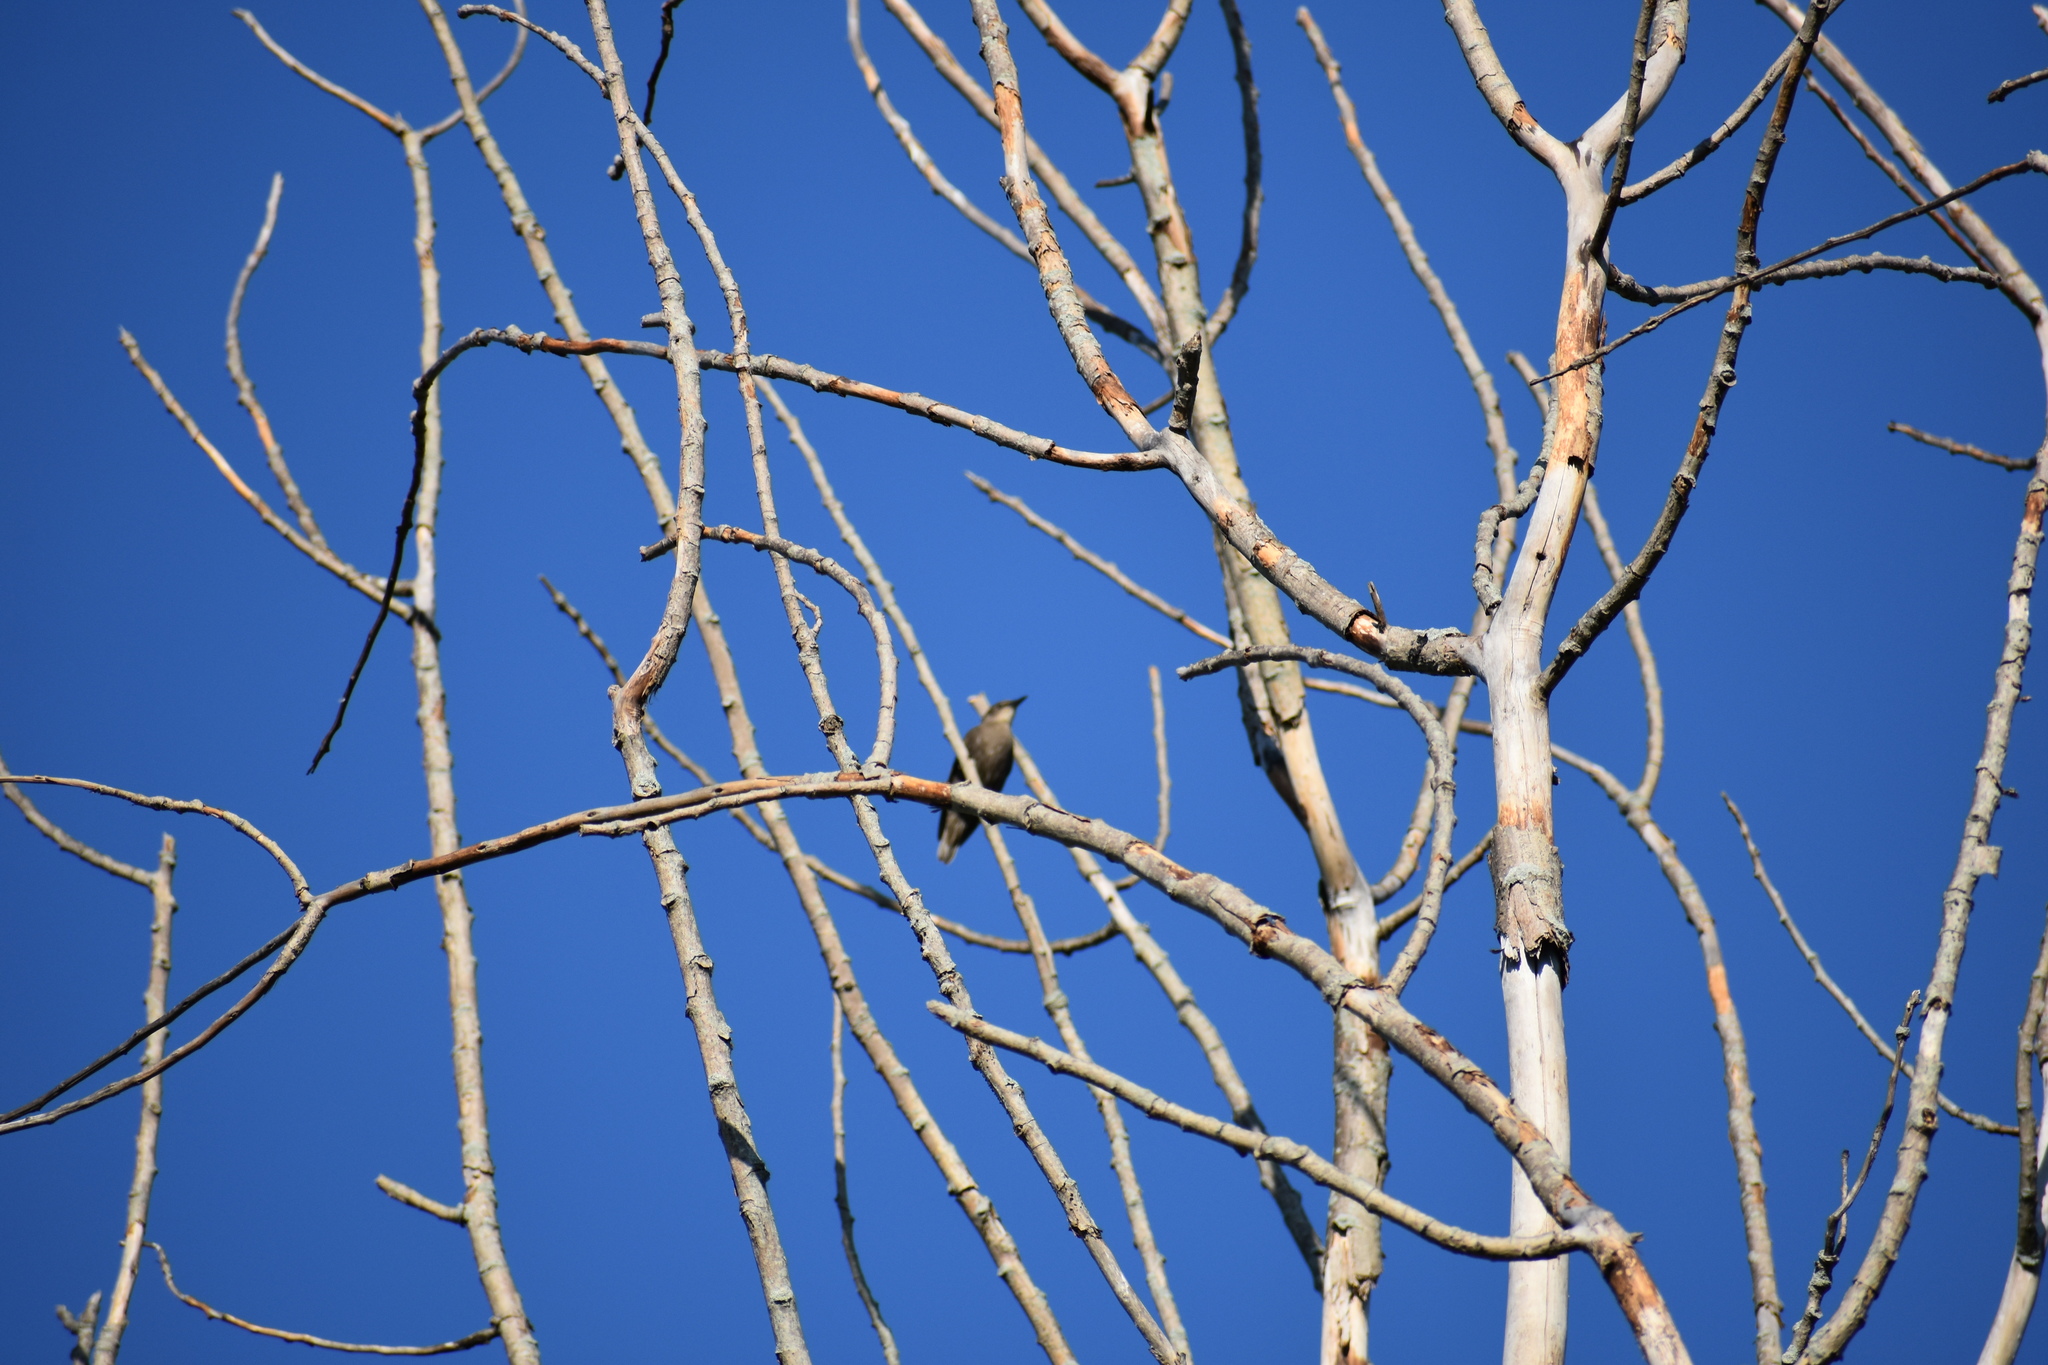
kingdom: Animalia
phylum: Chordata
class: Aves
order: Passeriformes
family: Sturnidae
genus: Sturnus
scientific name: Sturnus vulgaris
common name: Common starling
